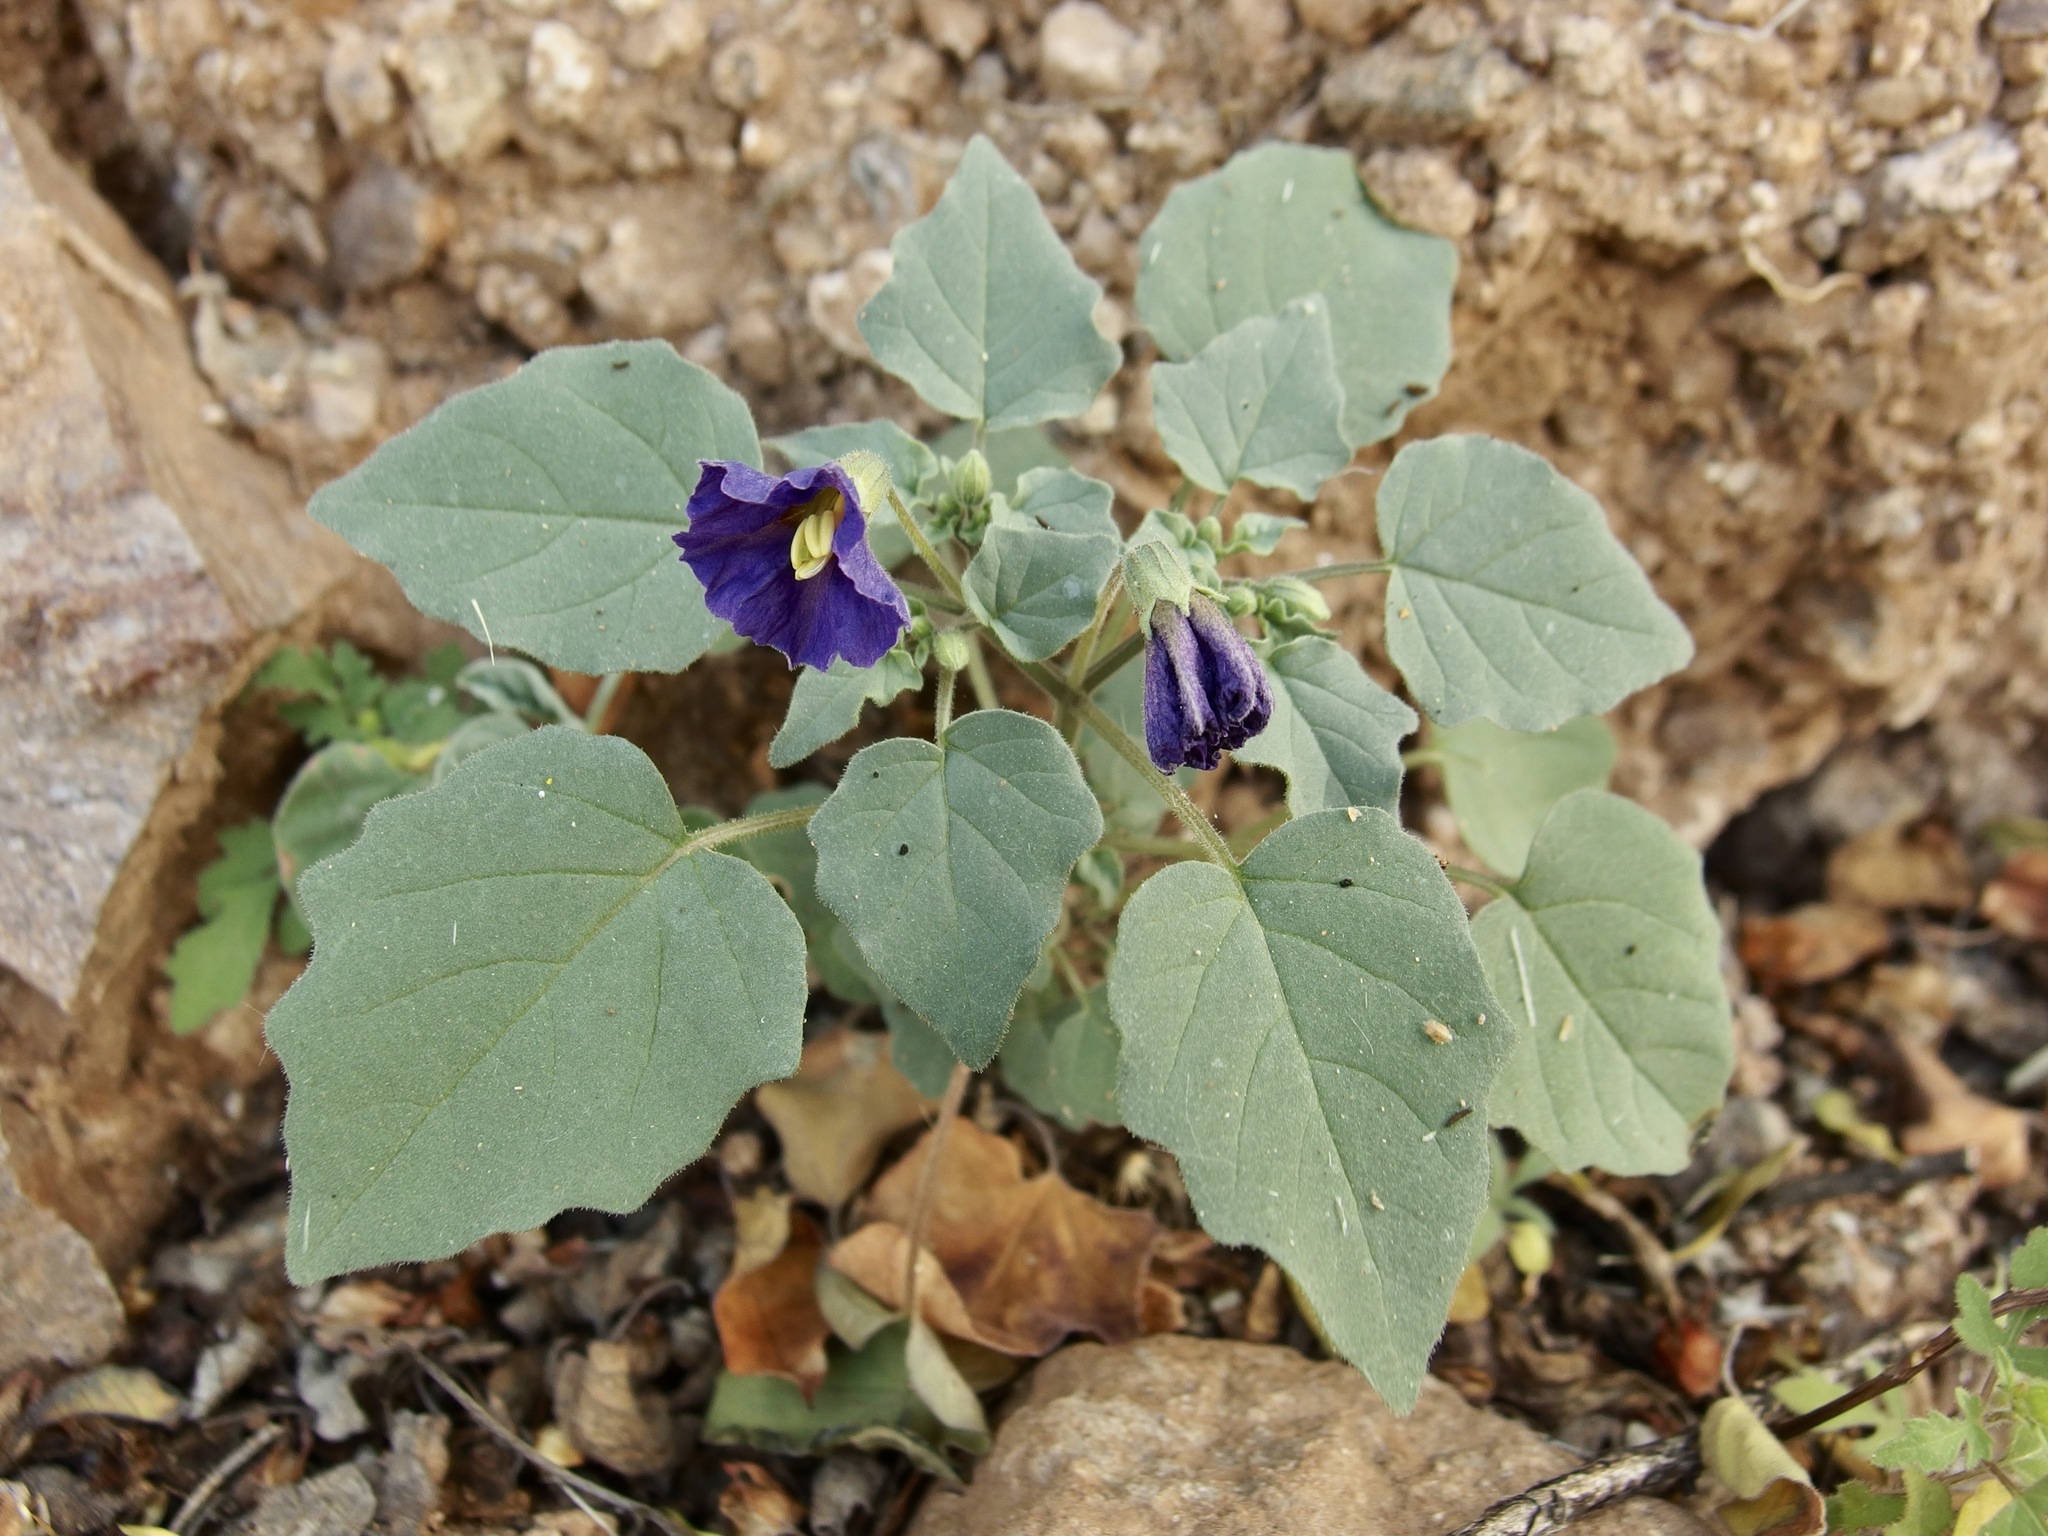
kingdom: Plantae
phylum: Tracheophyta
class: Magnoliopsida
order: Solanales
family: Solanaceae
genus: Physalis
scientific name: Physalis purpurea
